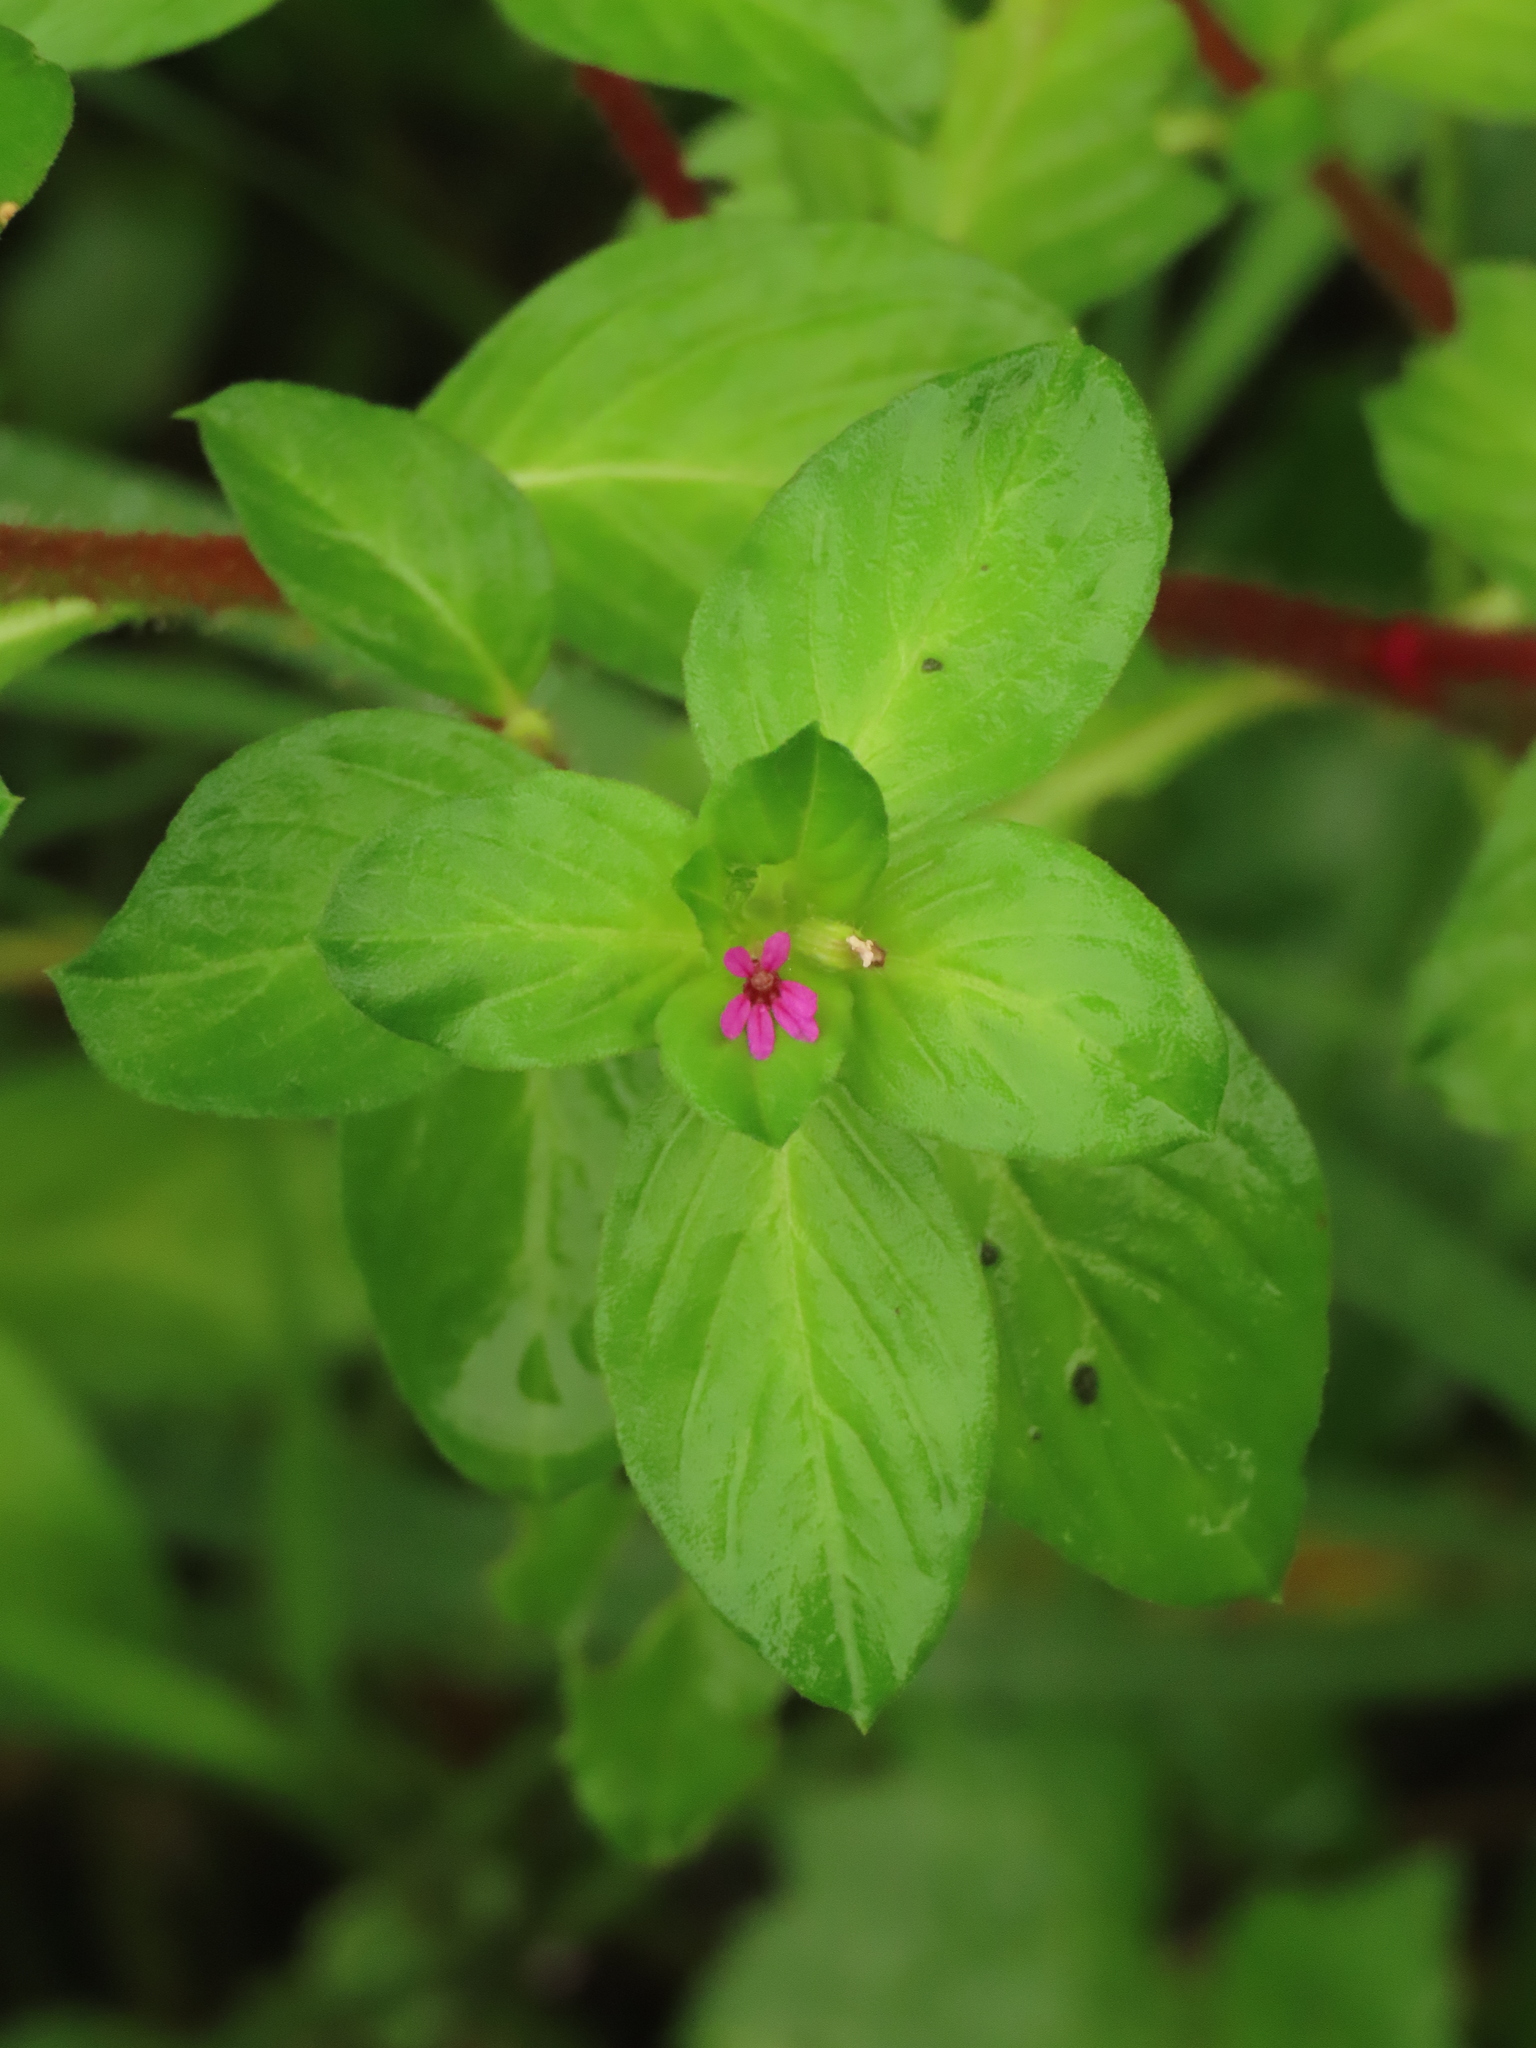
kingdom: Plantae
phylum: Tracheophyta
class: Magnoliopsida
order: Myrtales
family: Lythraceae
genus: Cuphea
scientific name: Cuphea carthagenensis
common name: Colombian waxweed
